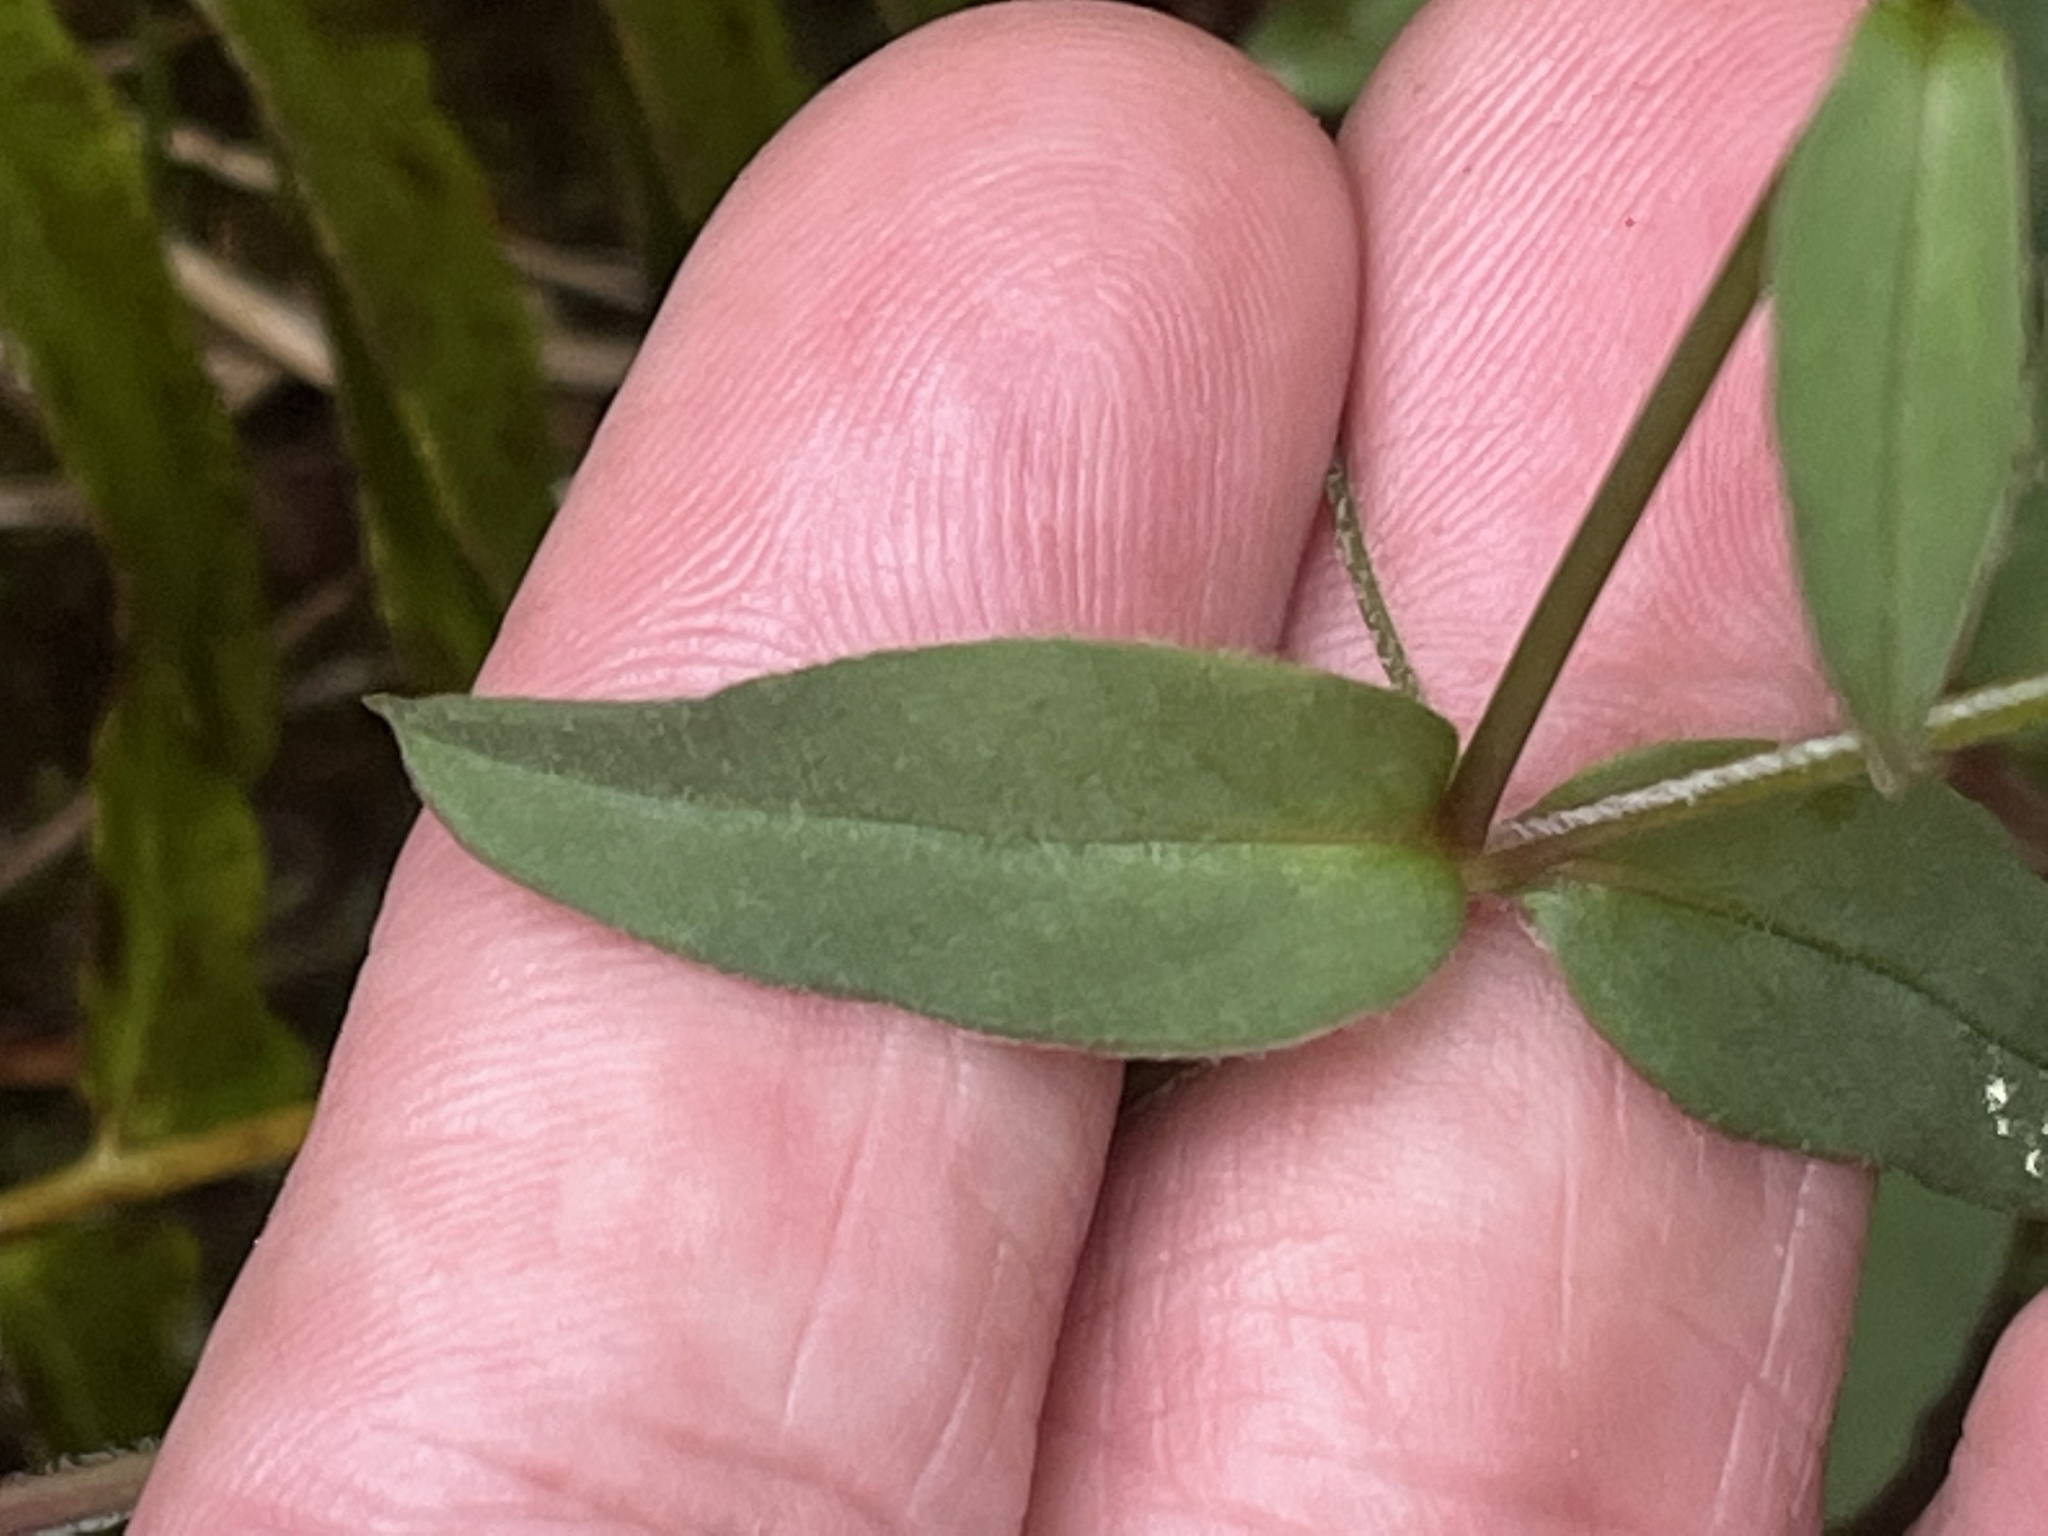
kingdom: Plantae
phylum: Tracheophyta
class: Magnoliopsida
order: Caryophyllales
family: Caryophyllaceae
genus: Stellaria
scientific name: Stellaria pubera
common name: Star chickweed
